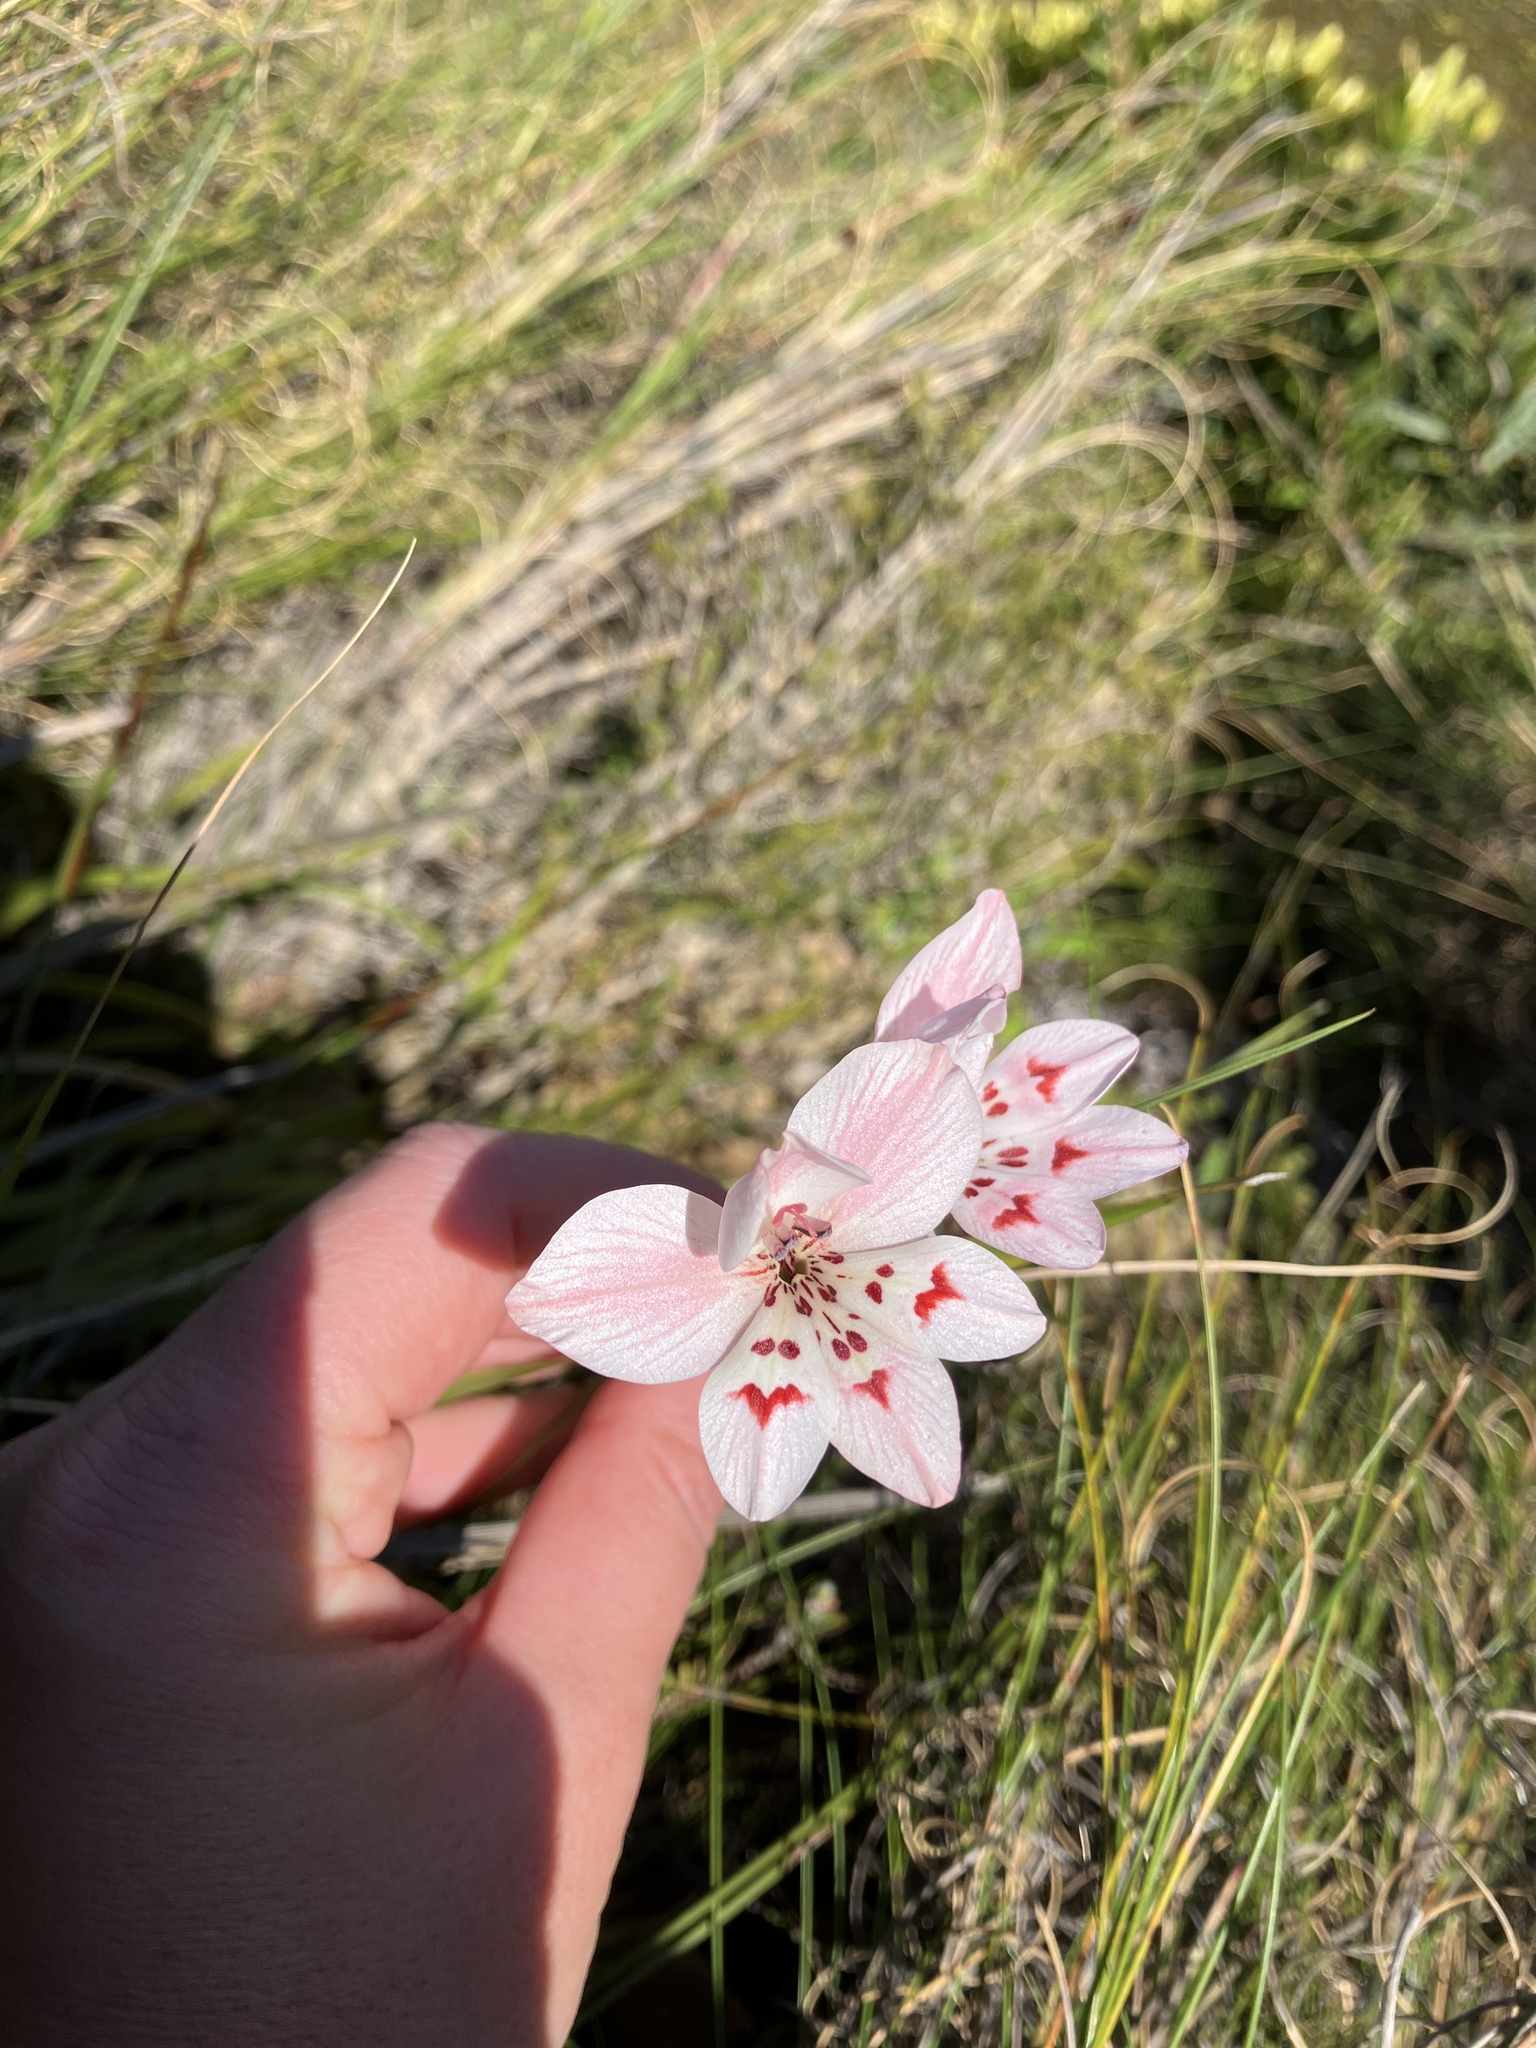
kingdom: Plantae
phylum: Tracheophyta
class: Liliopsida
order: Asparagales
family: Iridaceae
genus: Gladiolus
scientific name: Gladiolus debilis
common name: Painted-lady
